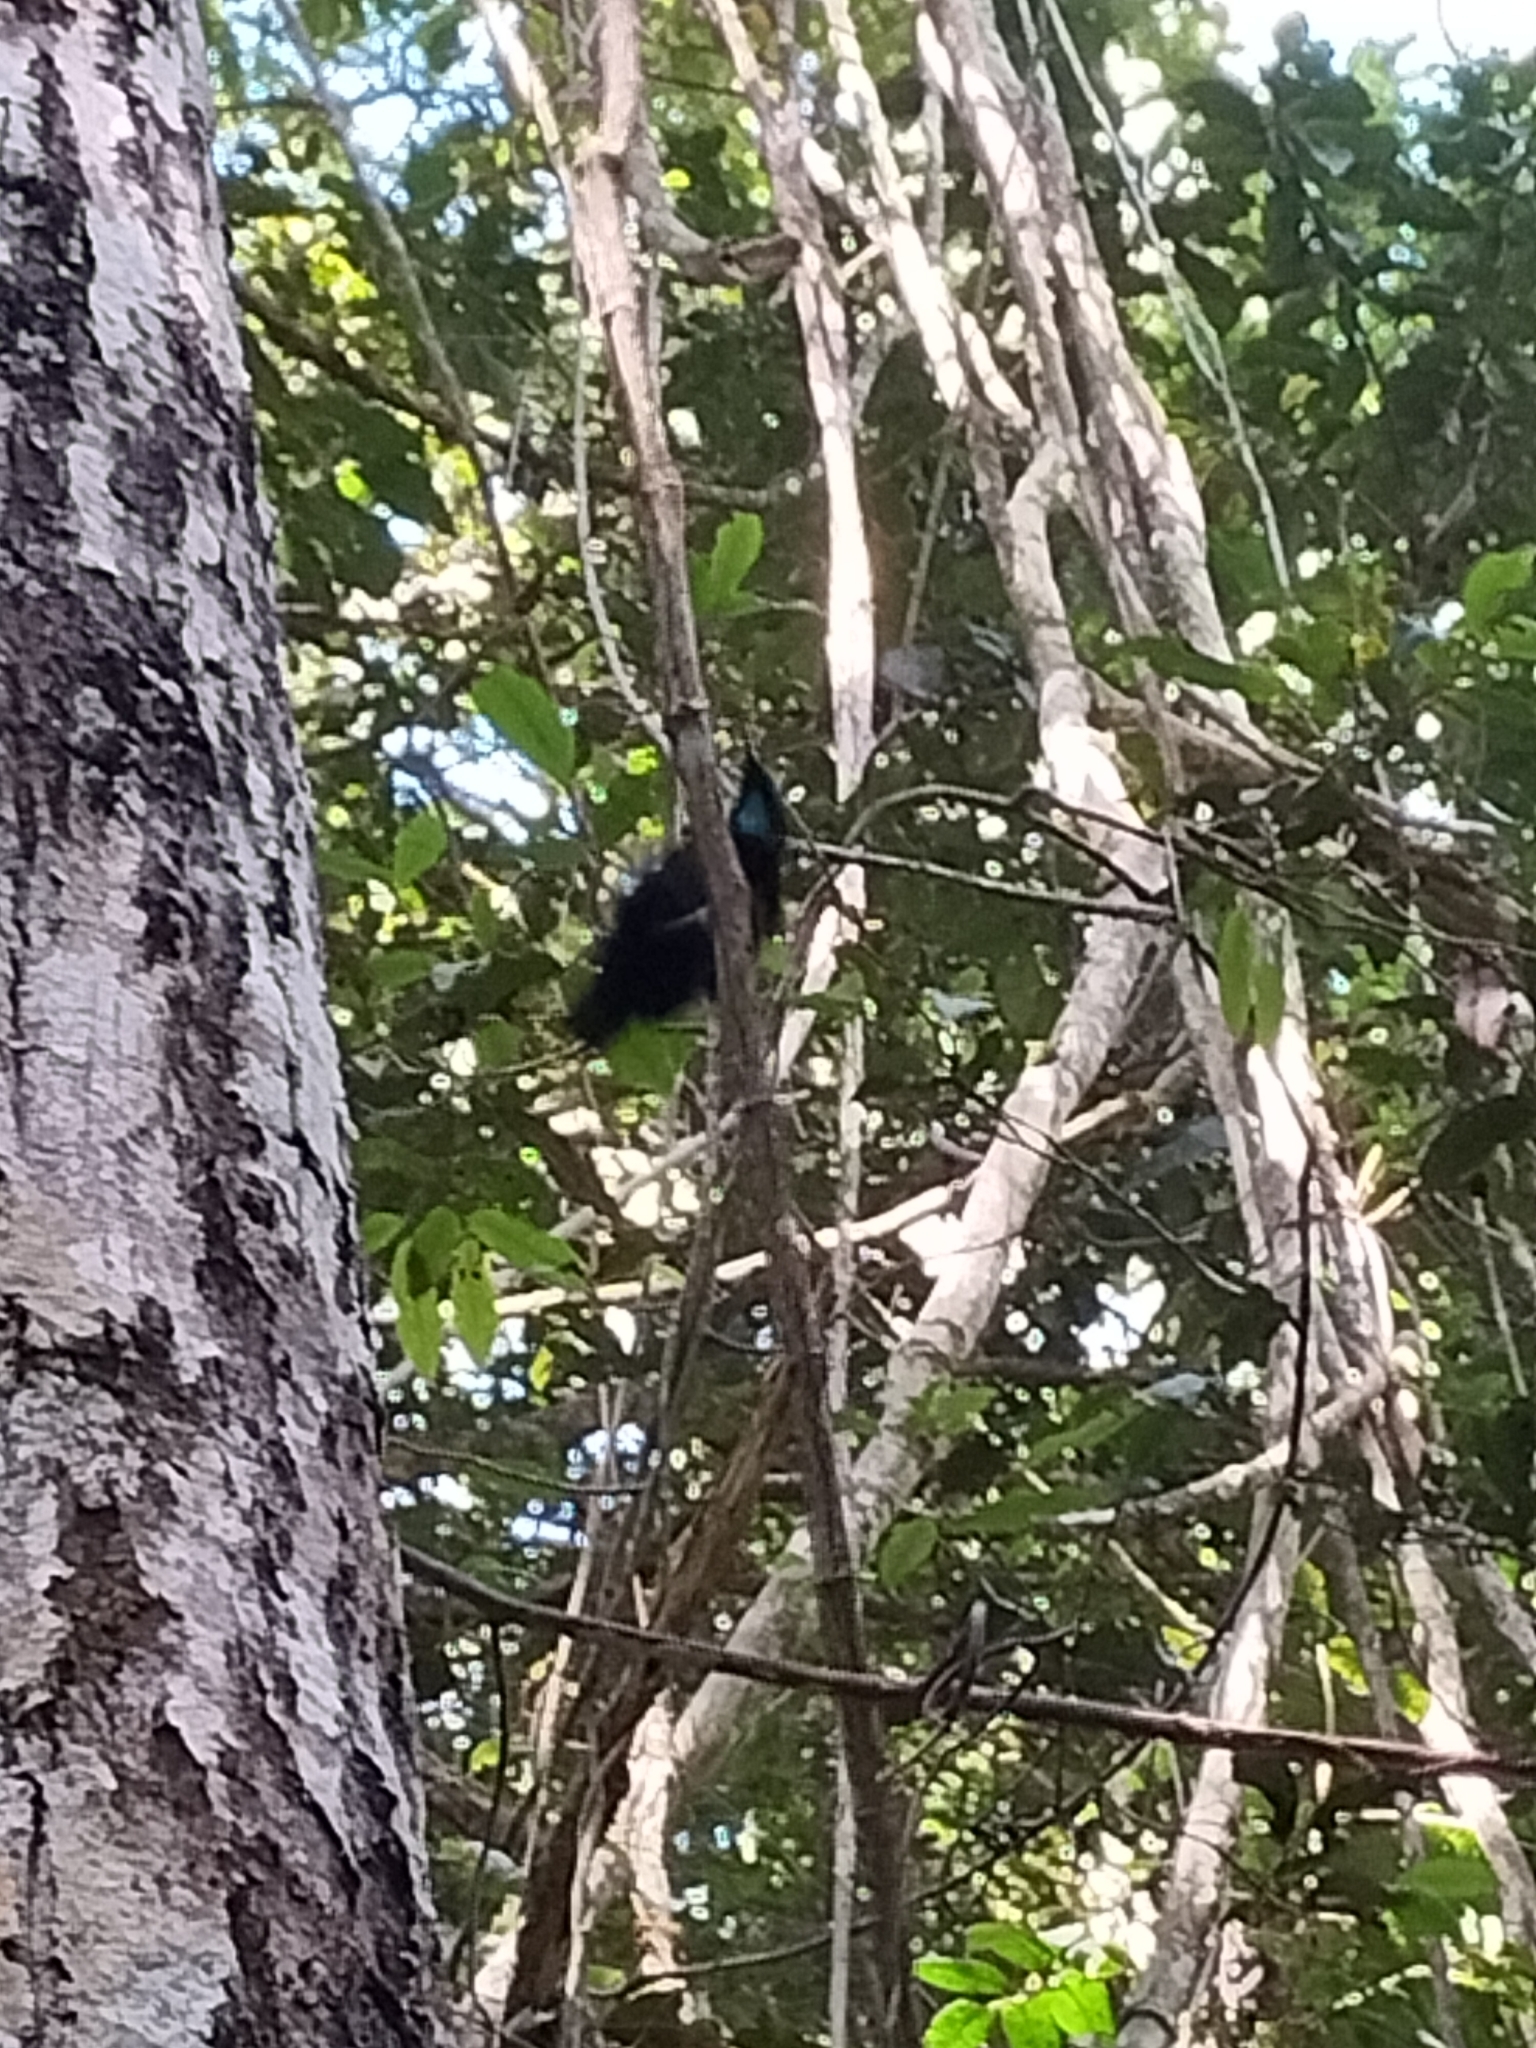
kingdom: Animalia
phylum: Chordata
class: Aves
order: Passeriformes
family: Paradisaeidae
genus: Ptiloris
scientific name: Ptiloris victoriae
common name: Victoria's riflebird
